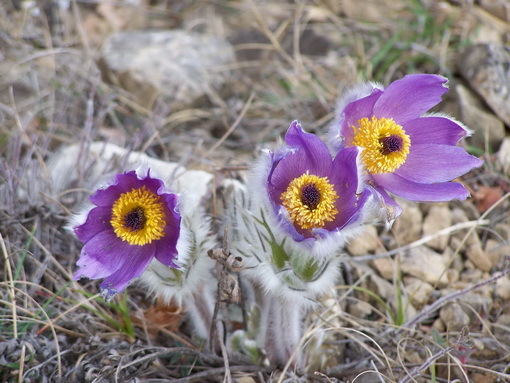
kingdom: Plantae
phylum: Tracheophyta
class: Magnoliopsida
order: Ranunculales
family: Ranunculaceae
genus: Pulsatilla
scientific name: Pulsatilla halleri
